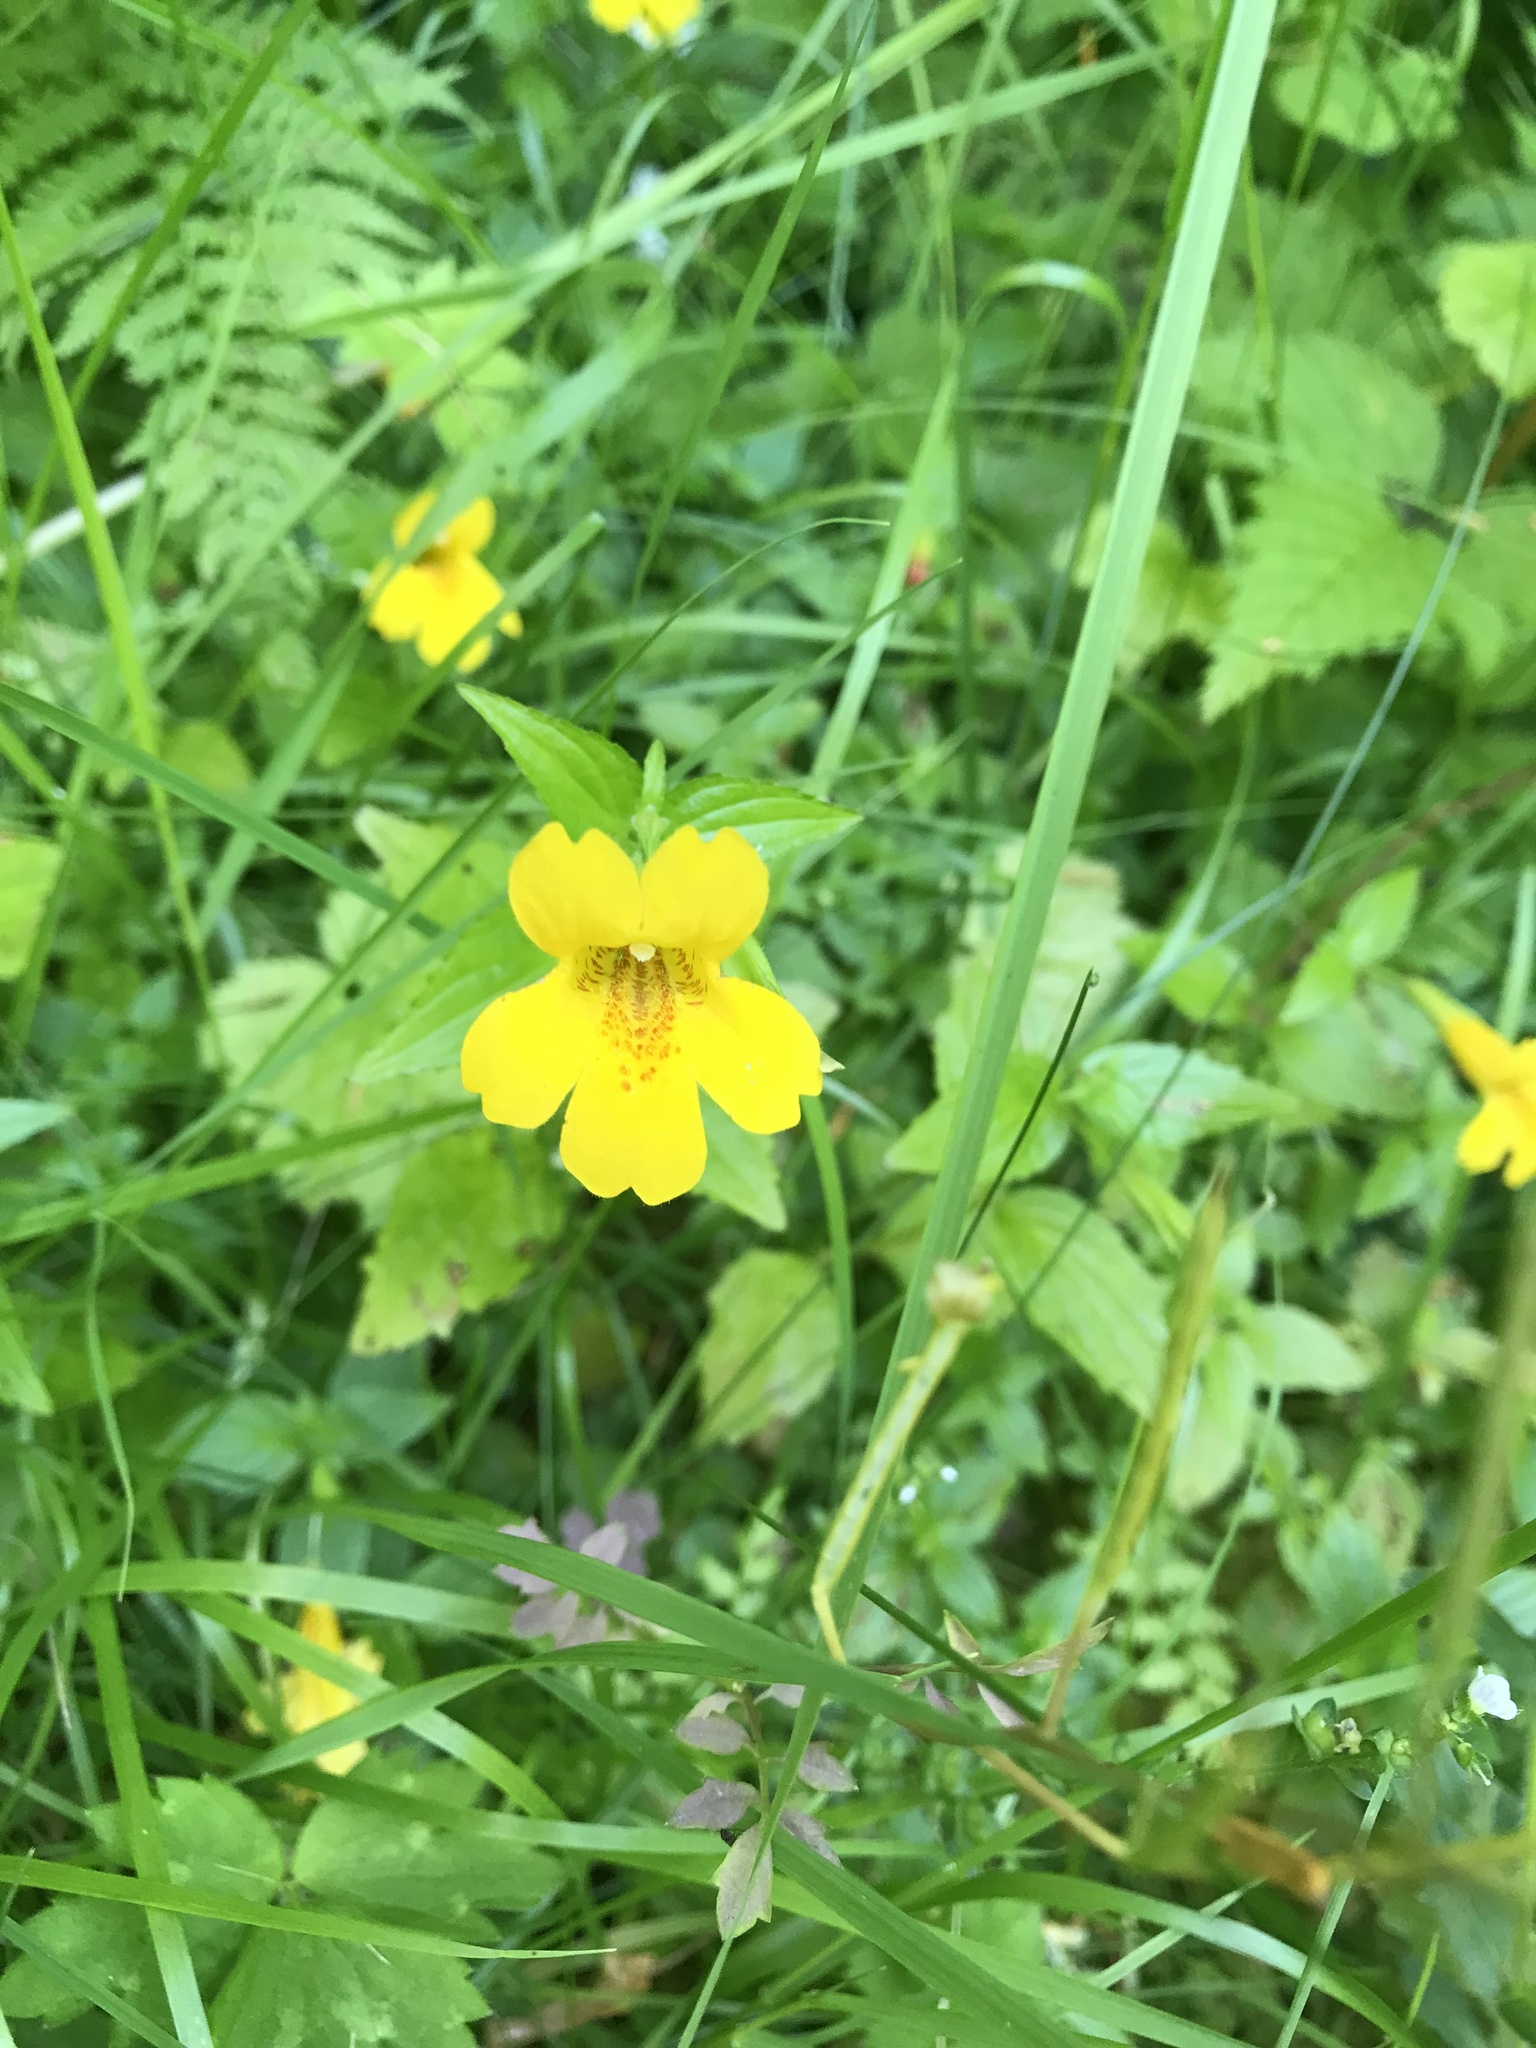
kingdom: Plantae
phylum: Tracheophyta
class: Magnoliopsida
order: Lamiales
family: Phrymaceae
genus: Erythranthe
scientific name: Erythranthe dentata
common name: Coastal monkeyflower
